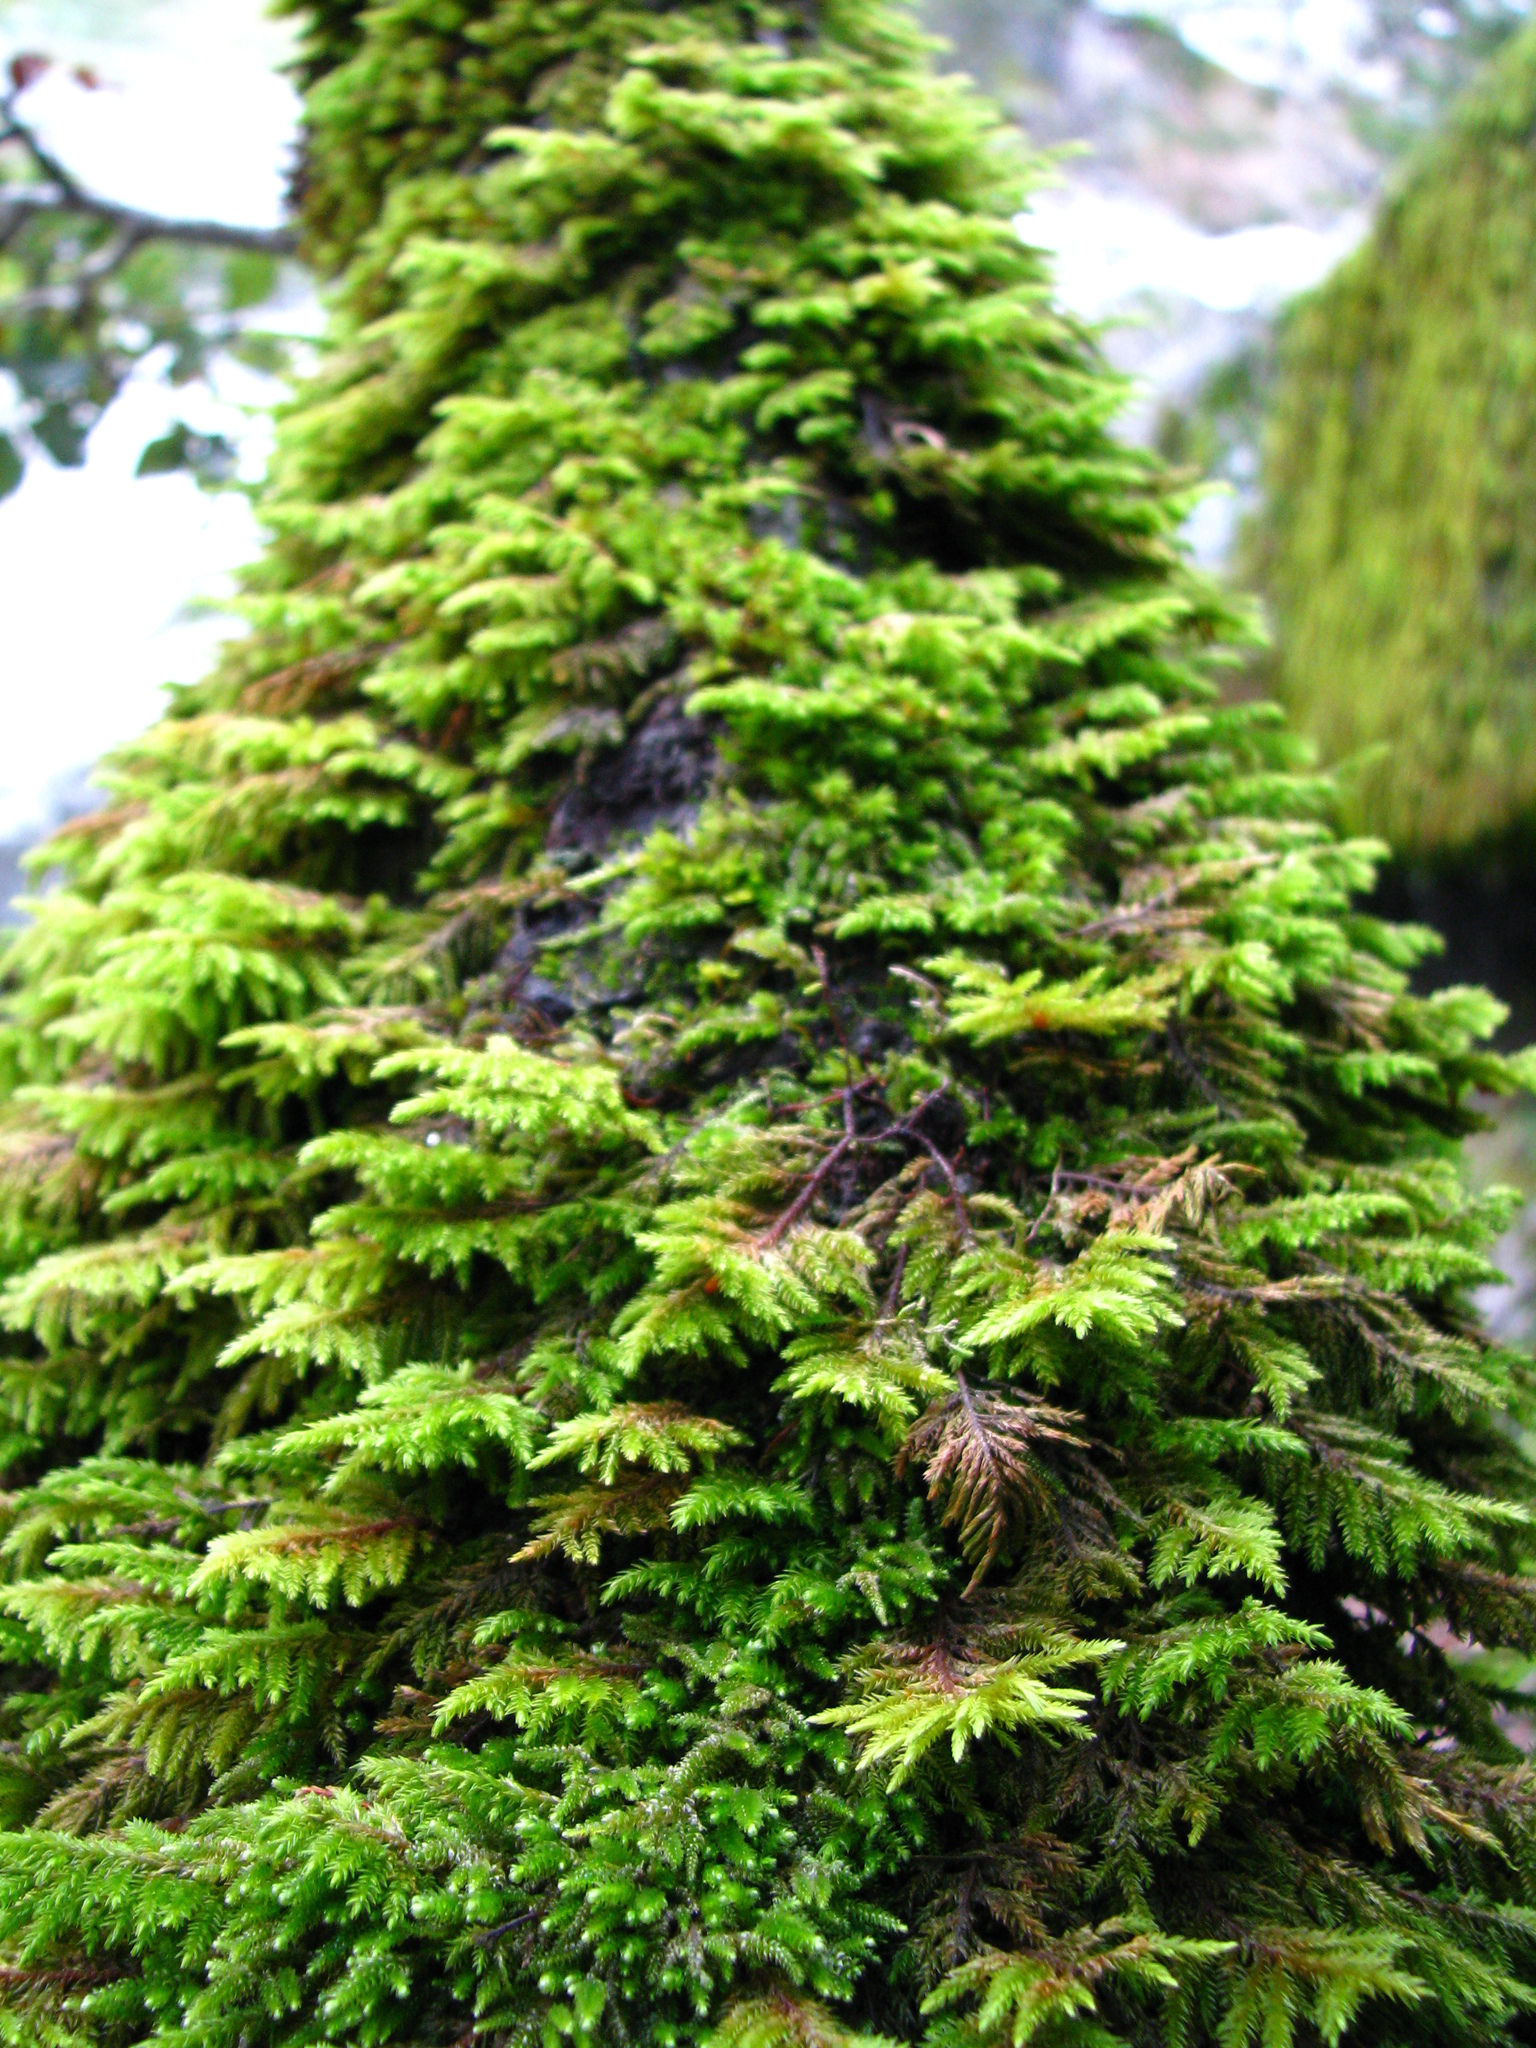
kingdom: Plantae
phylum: Bryophyta
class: Bryopsida
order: Hypnales
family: Cryphaeaceae
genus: Dendroalsia
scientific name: Dendroalsia abietina
